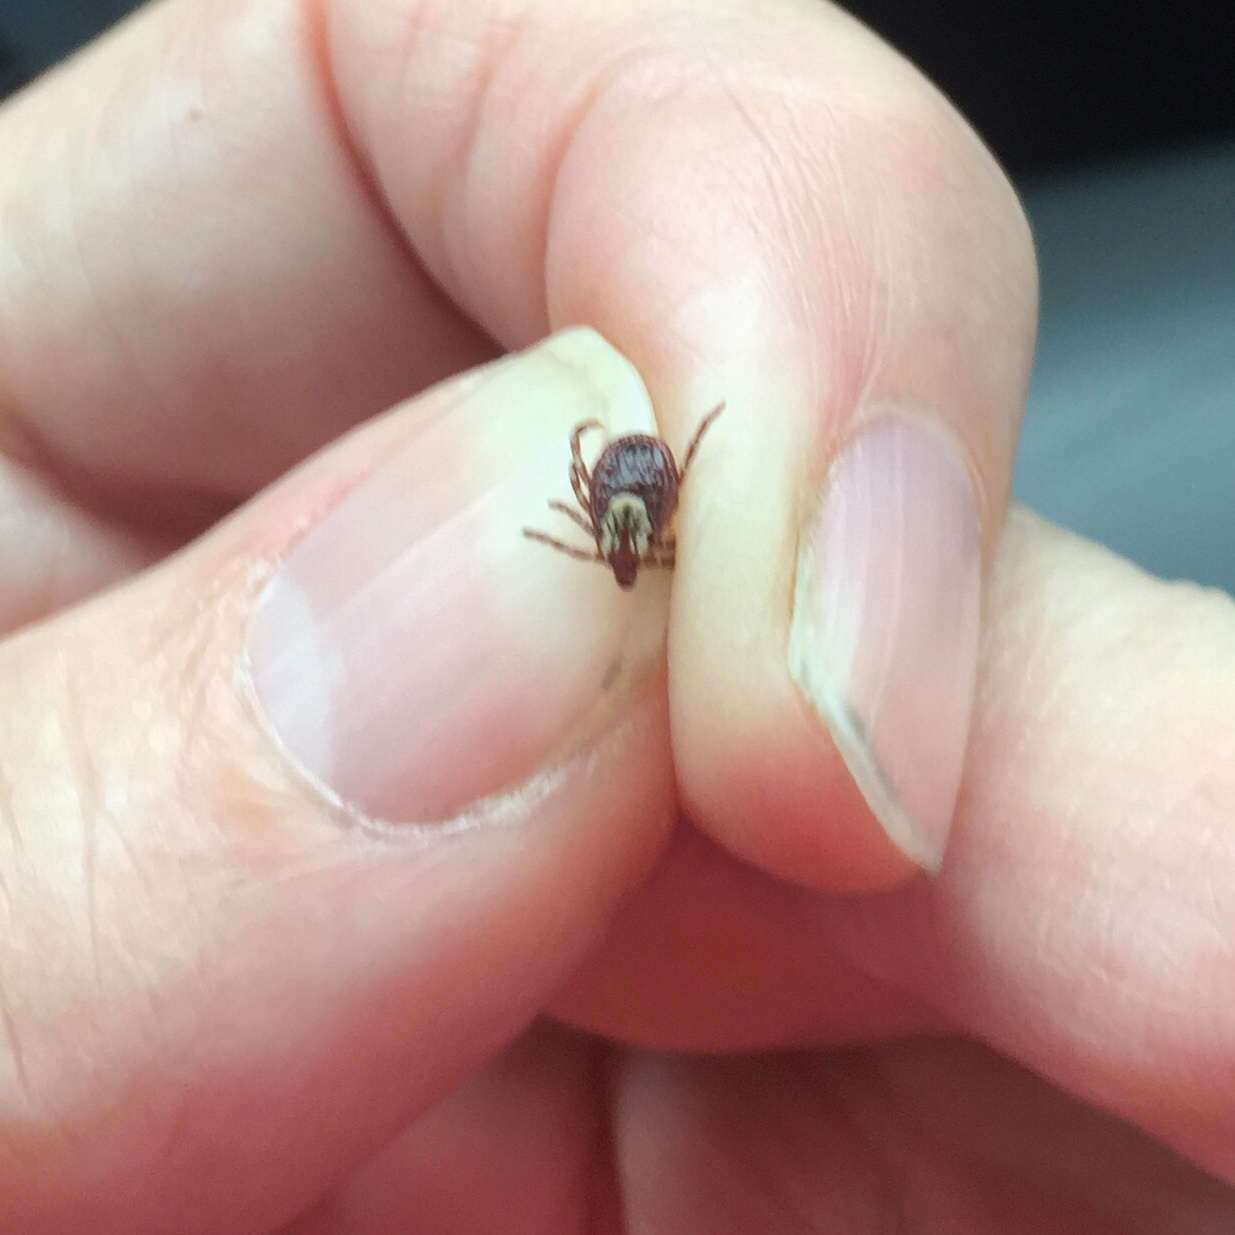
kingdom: Animalia
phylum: Arthropoda
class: Arachnida
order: Ixodida
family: Ixodidae
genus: Dermacentor
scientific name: Dermacentor variabilis
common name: American dog tick
